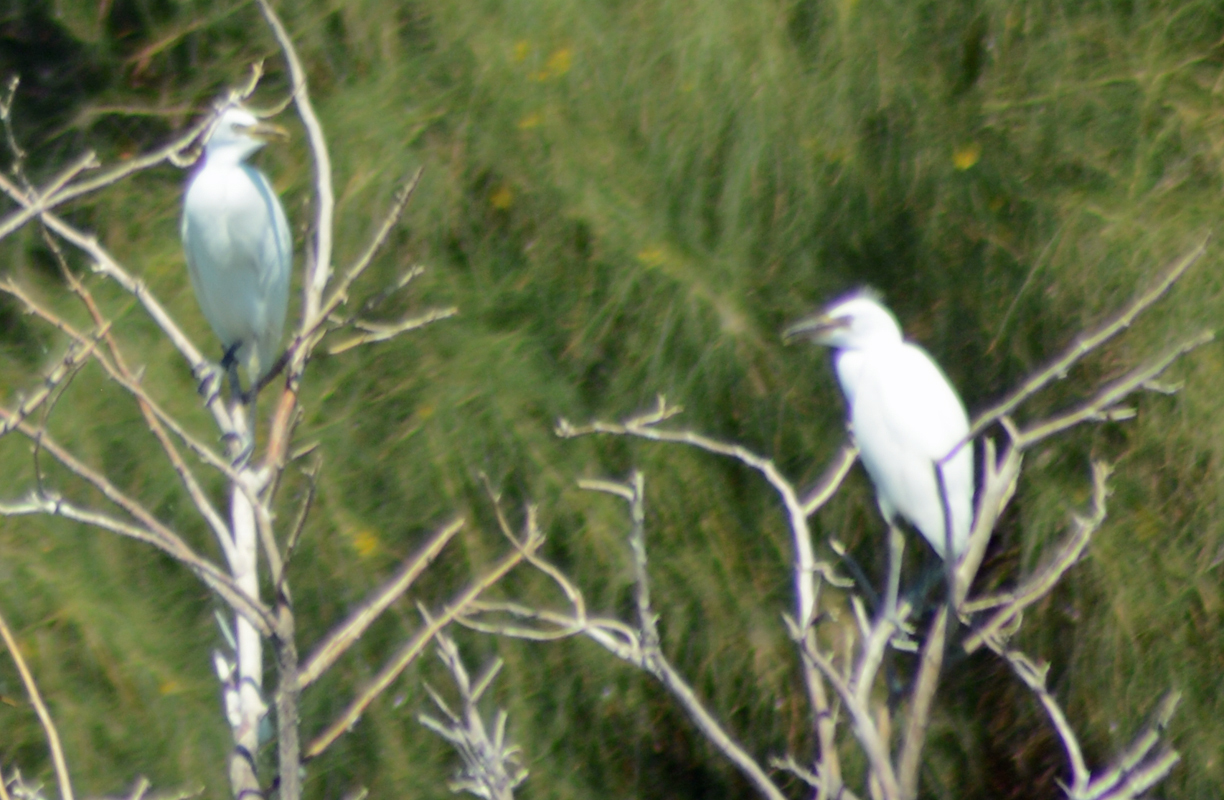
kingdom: Animalia
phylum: Chordata
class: Aves
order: Pelecaniformes
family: Ardeidae
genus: Egretta
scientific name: Egretta thula
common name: Snowy egret
